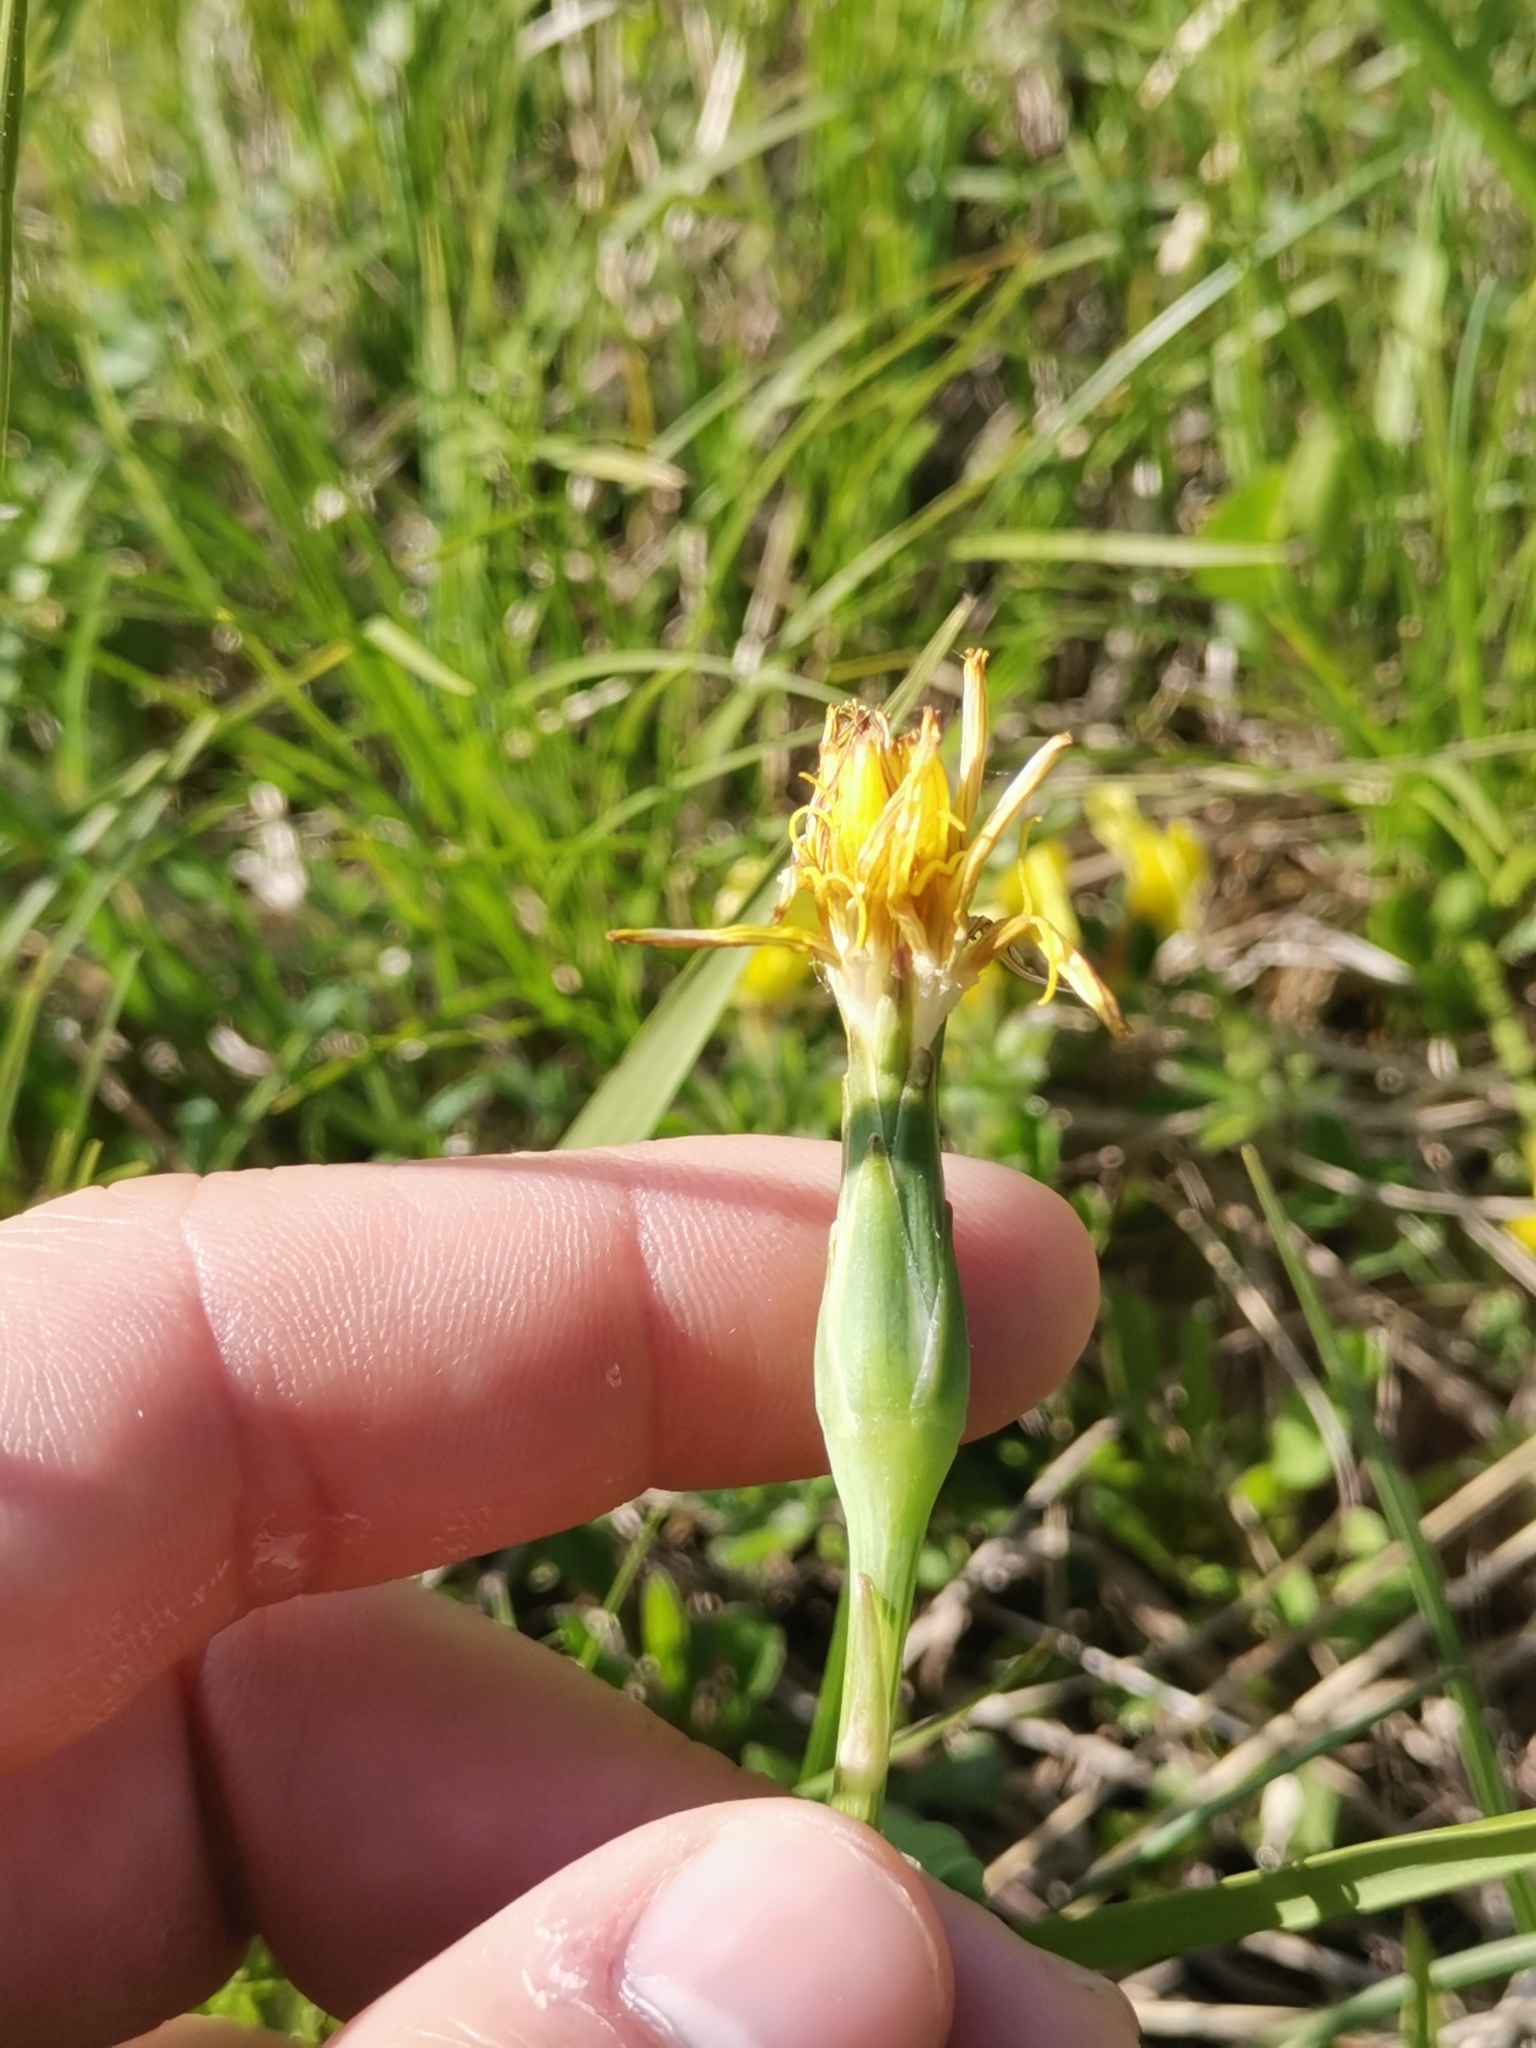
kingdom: Plantae
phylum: Tracheophyta
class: Magnoliopsida
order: Asterales
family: Asteraceae
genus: Takhtajaniantha
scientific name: Takhtajaniantha austriaca
